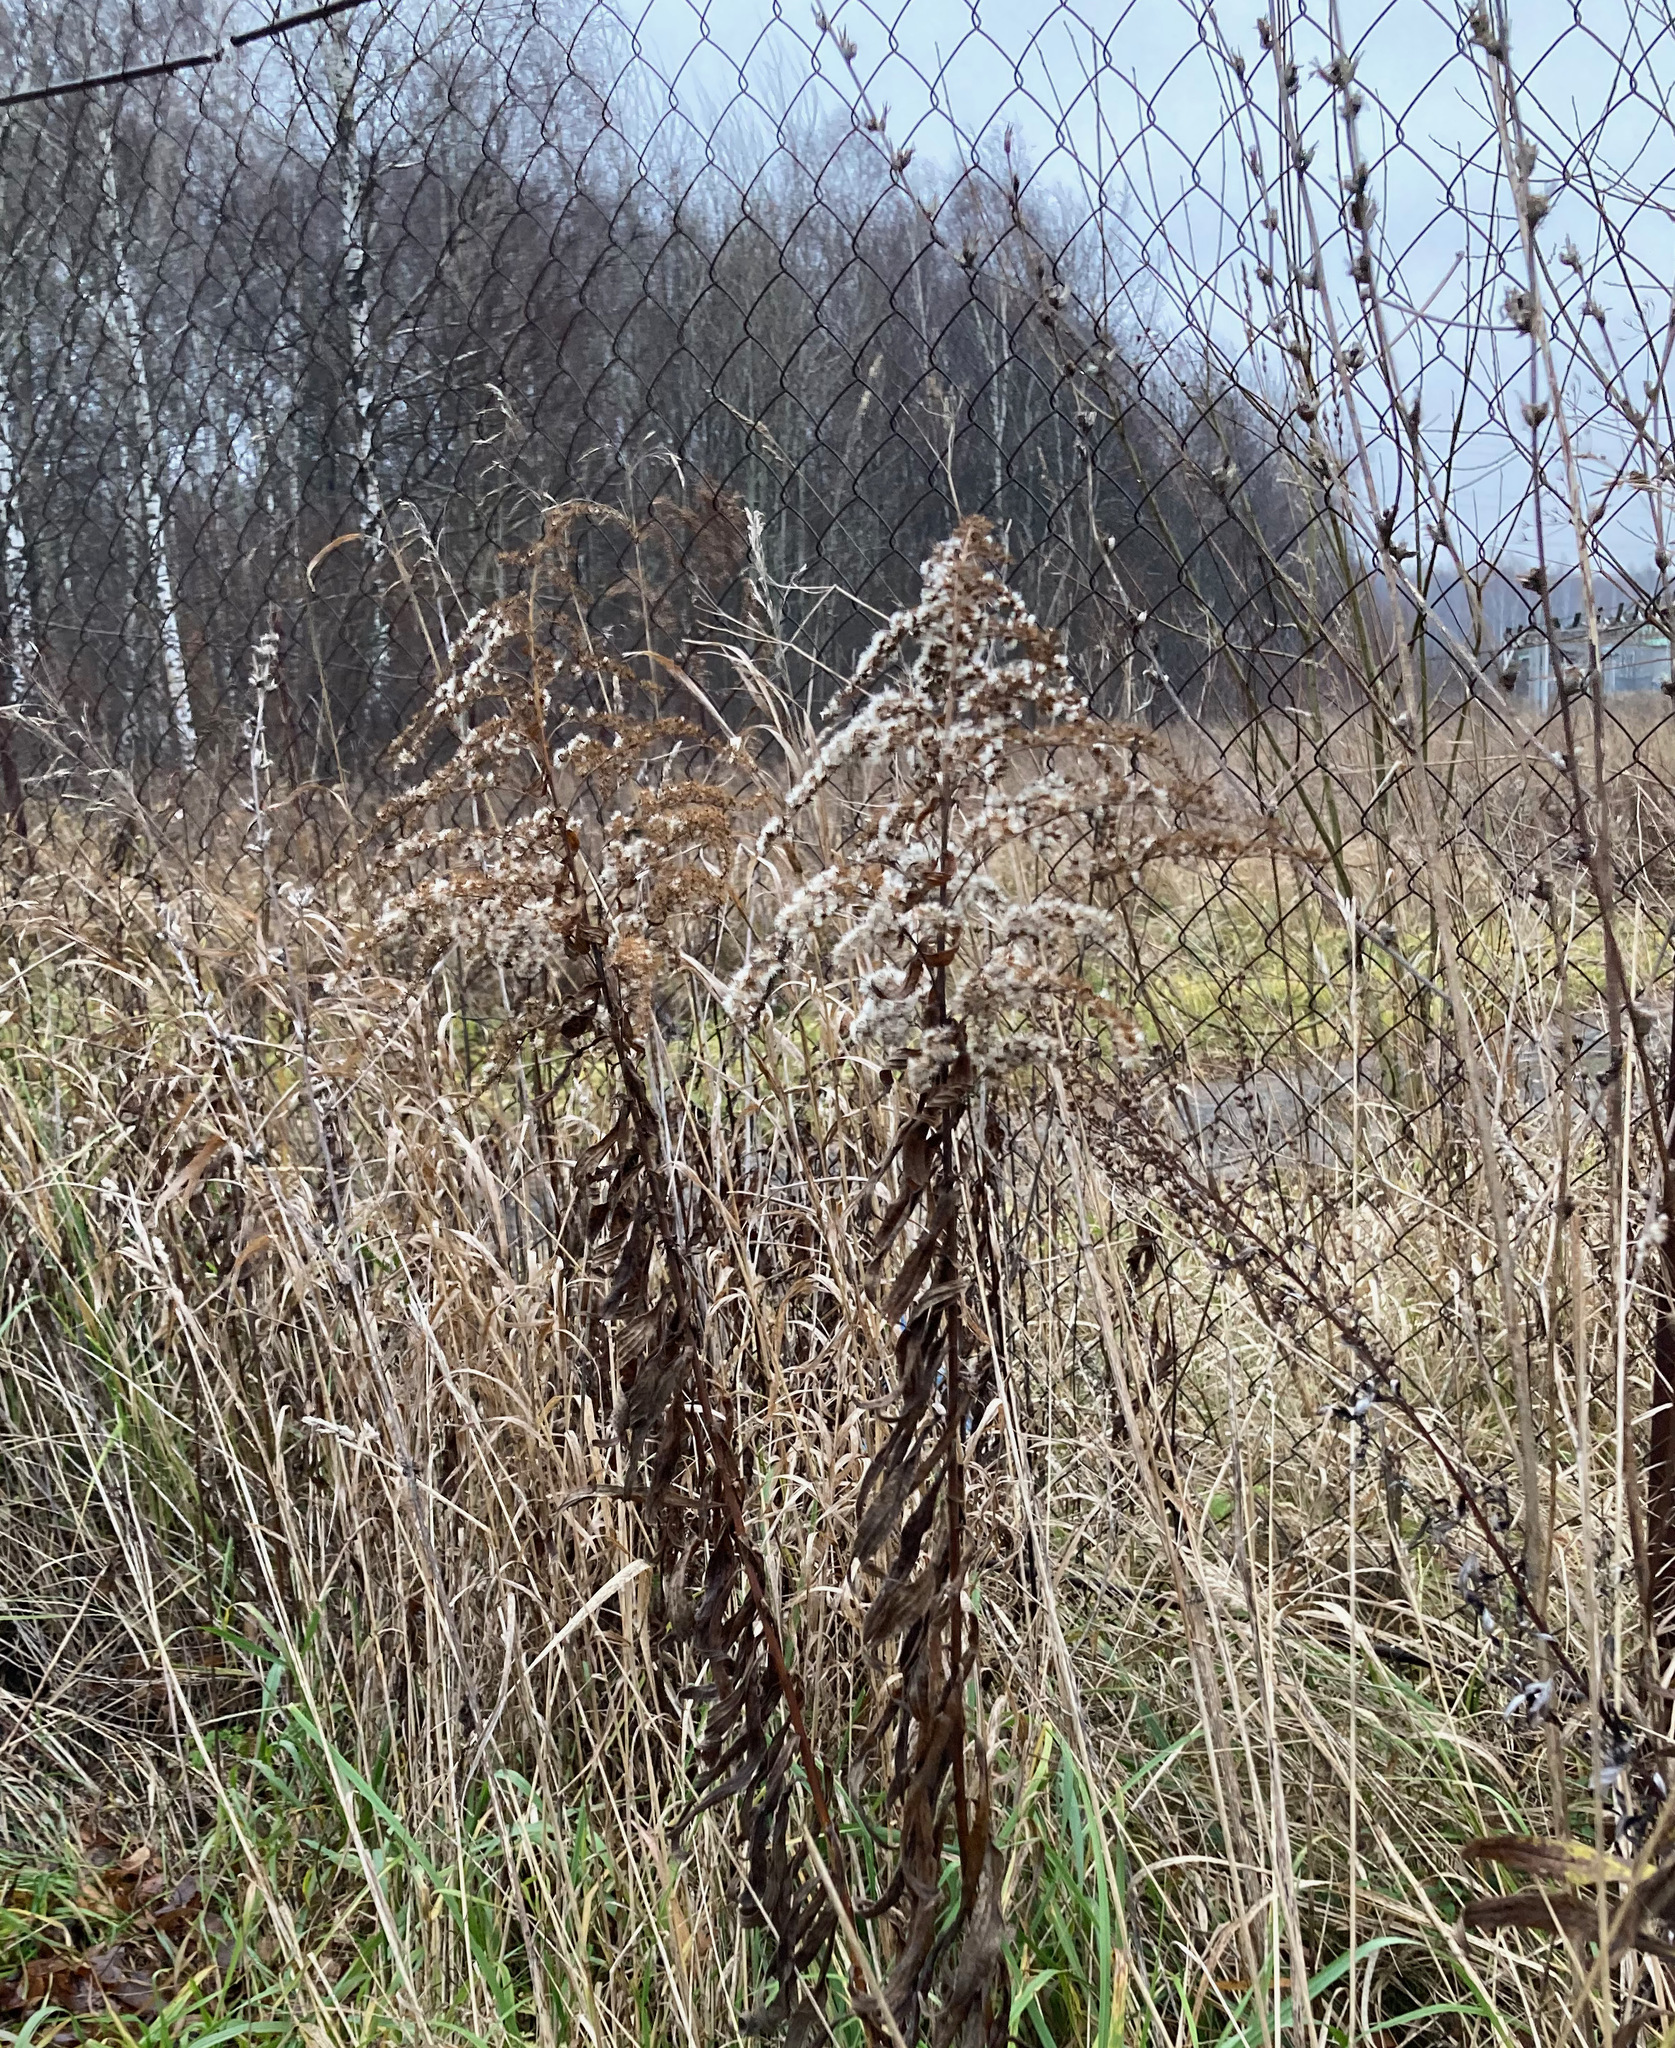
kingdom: Plantae
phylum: Tracheophyta
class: Magnoliopsida
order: Asterales
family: Asteraceae
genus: Solidago
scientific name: Solidago canadensis
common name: Canada goldenrod
